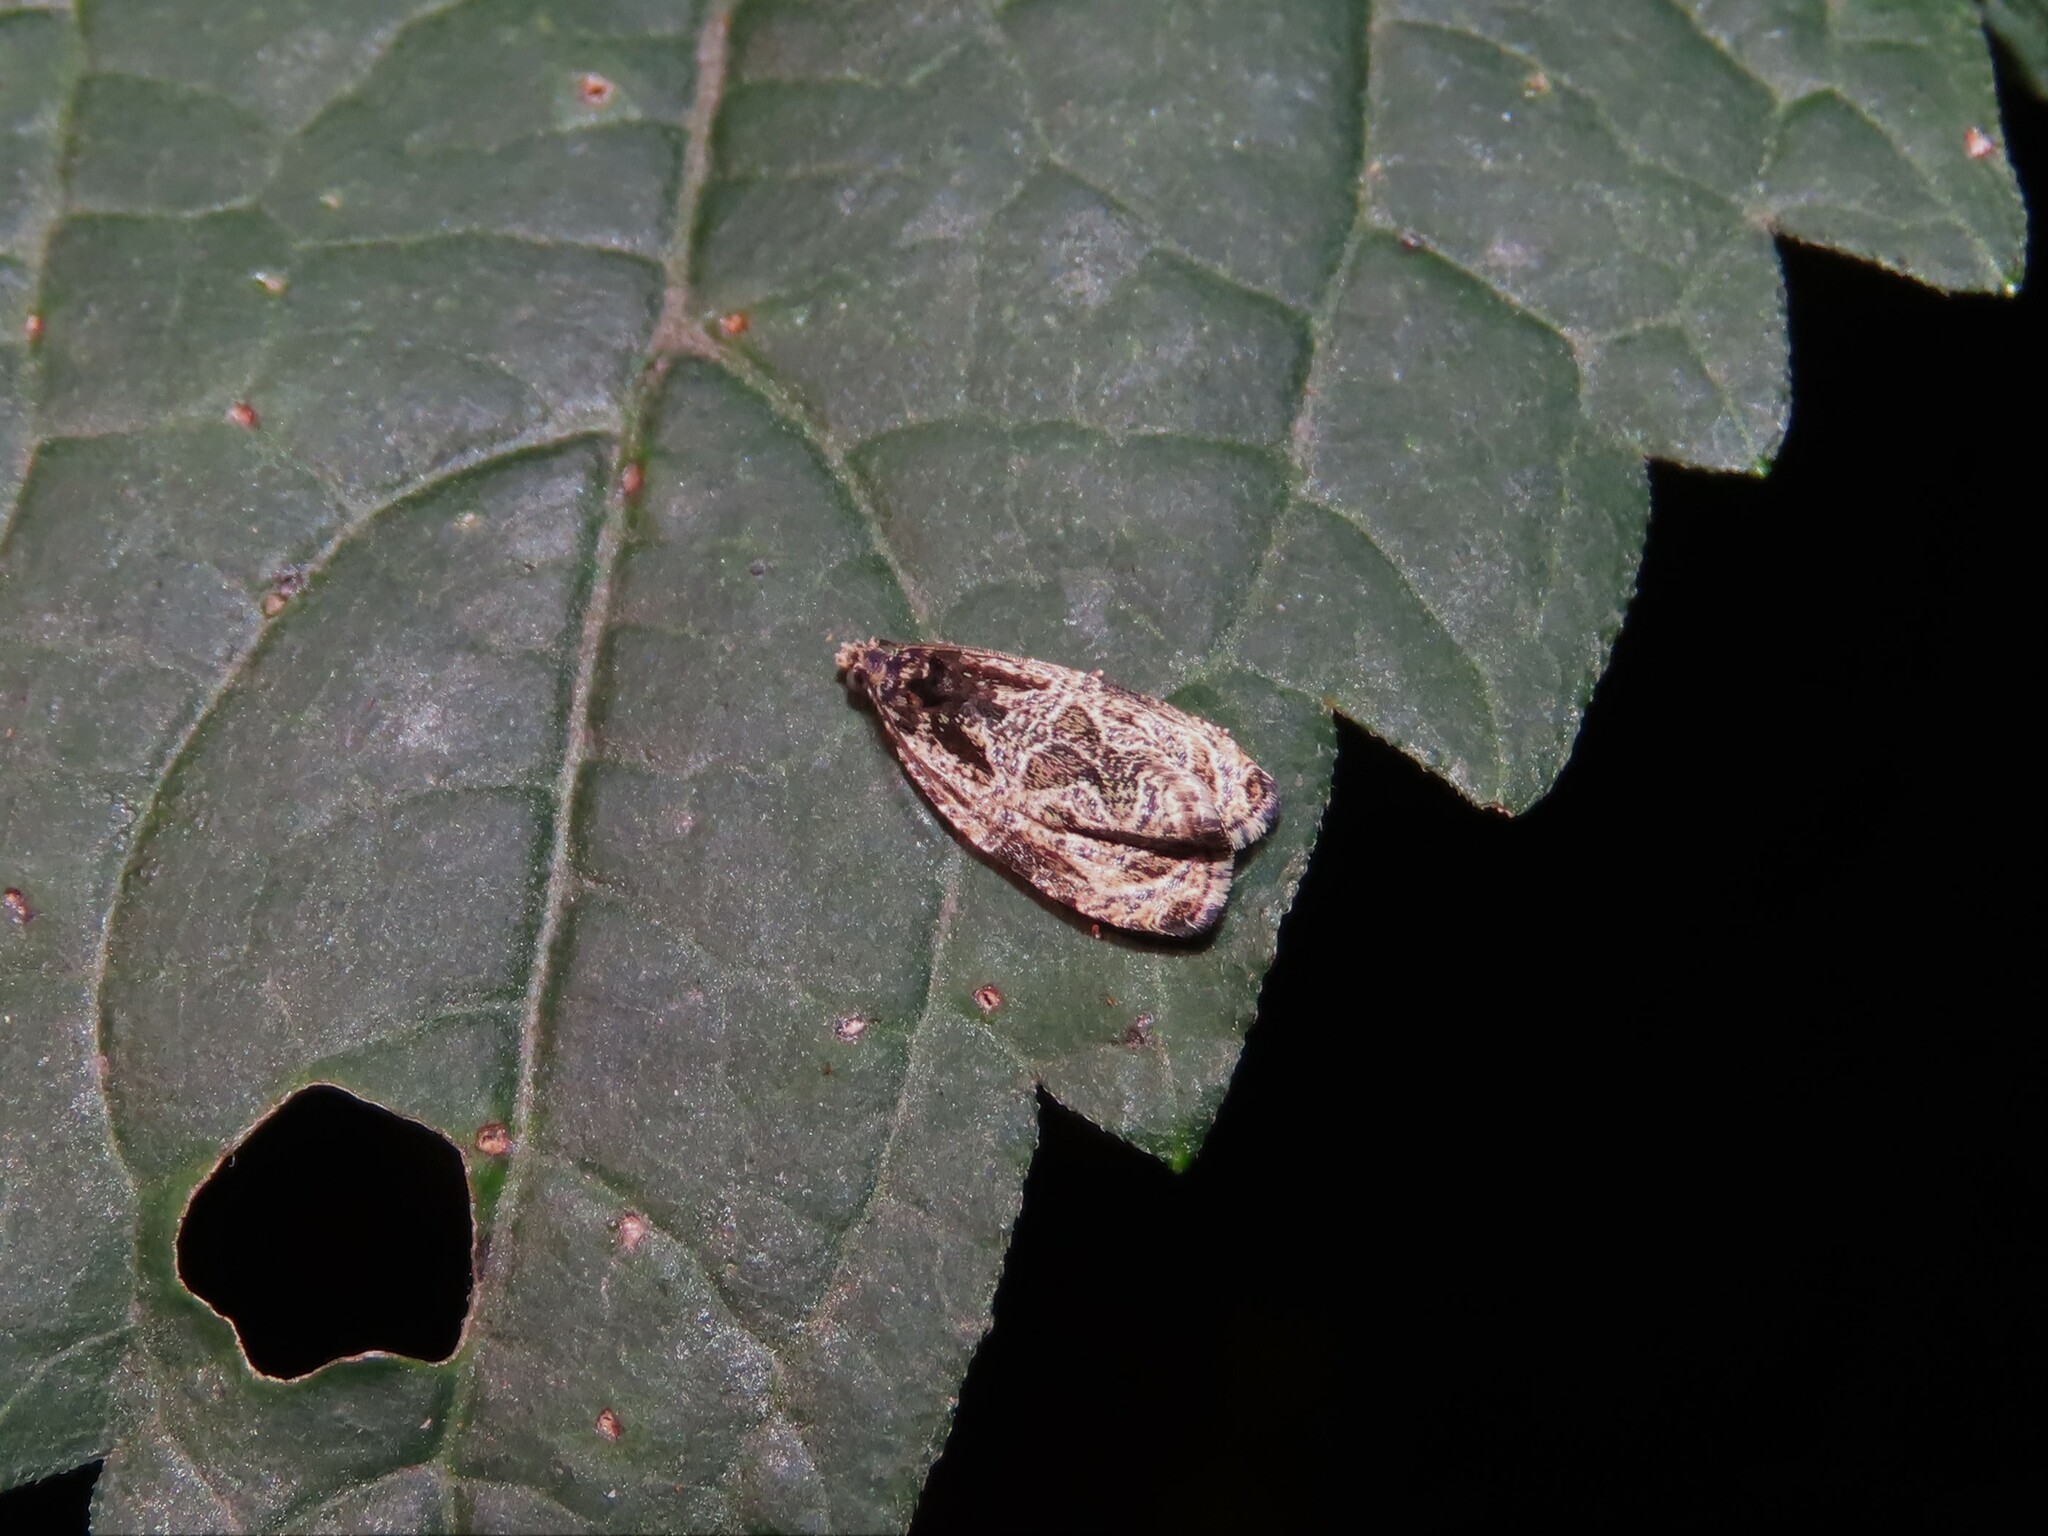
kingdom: Animalia
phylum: Arthropoda
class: Insecta
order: Lepidoptera
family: Tortricidae
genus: Olethreutes
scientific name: Olethreutes concinnana
